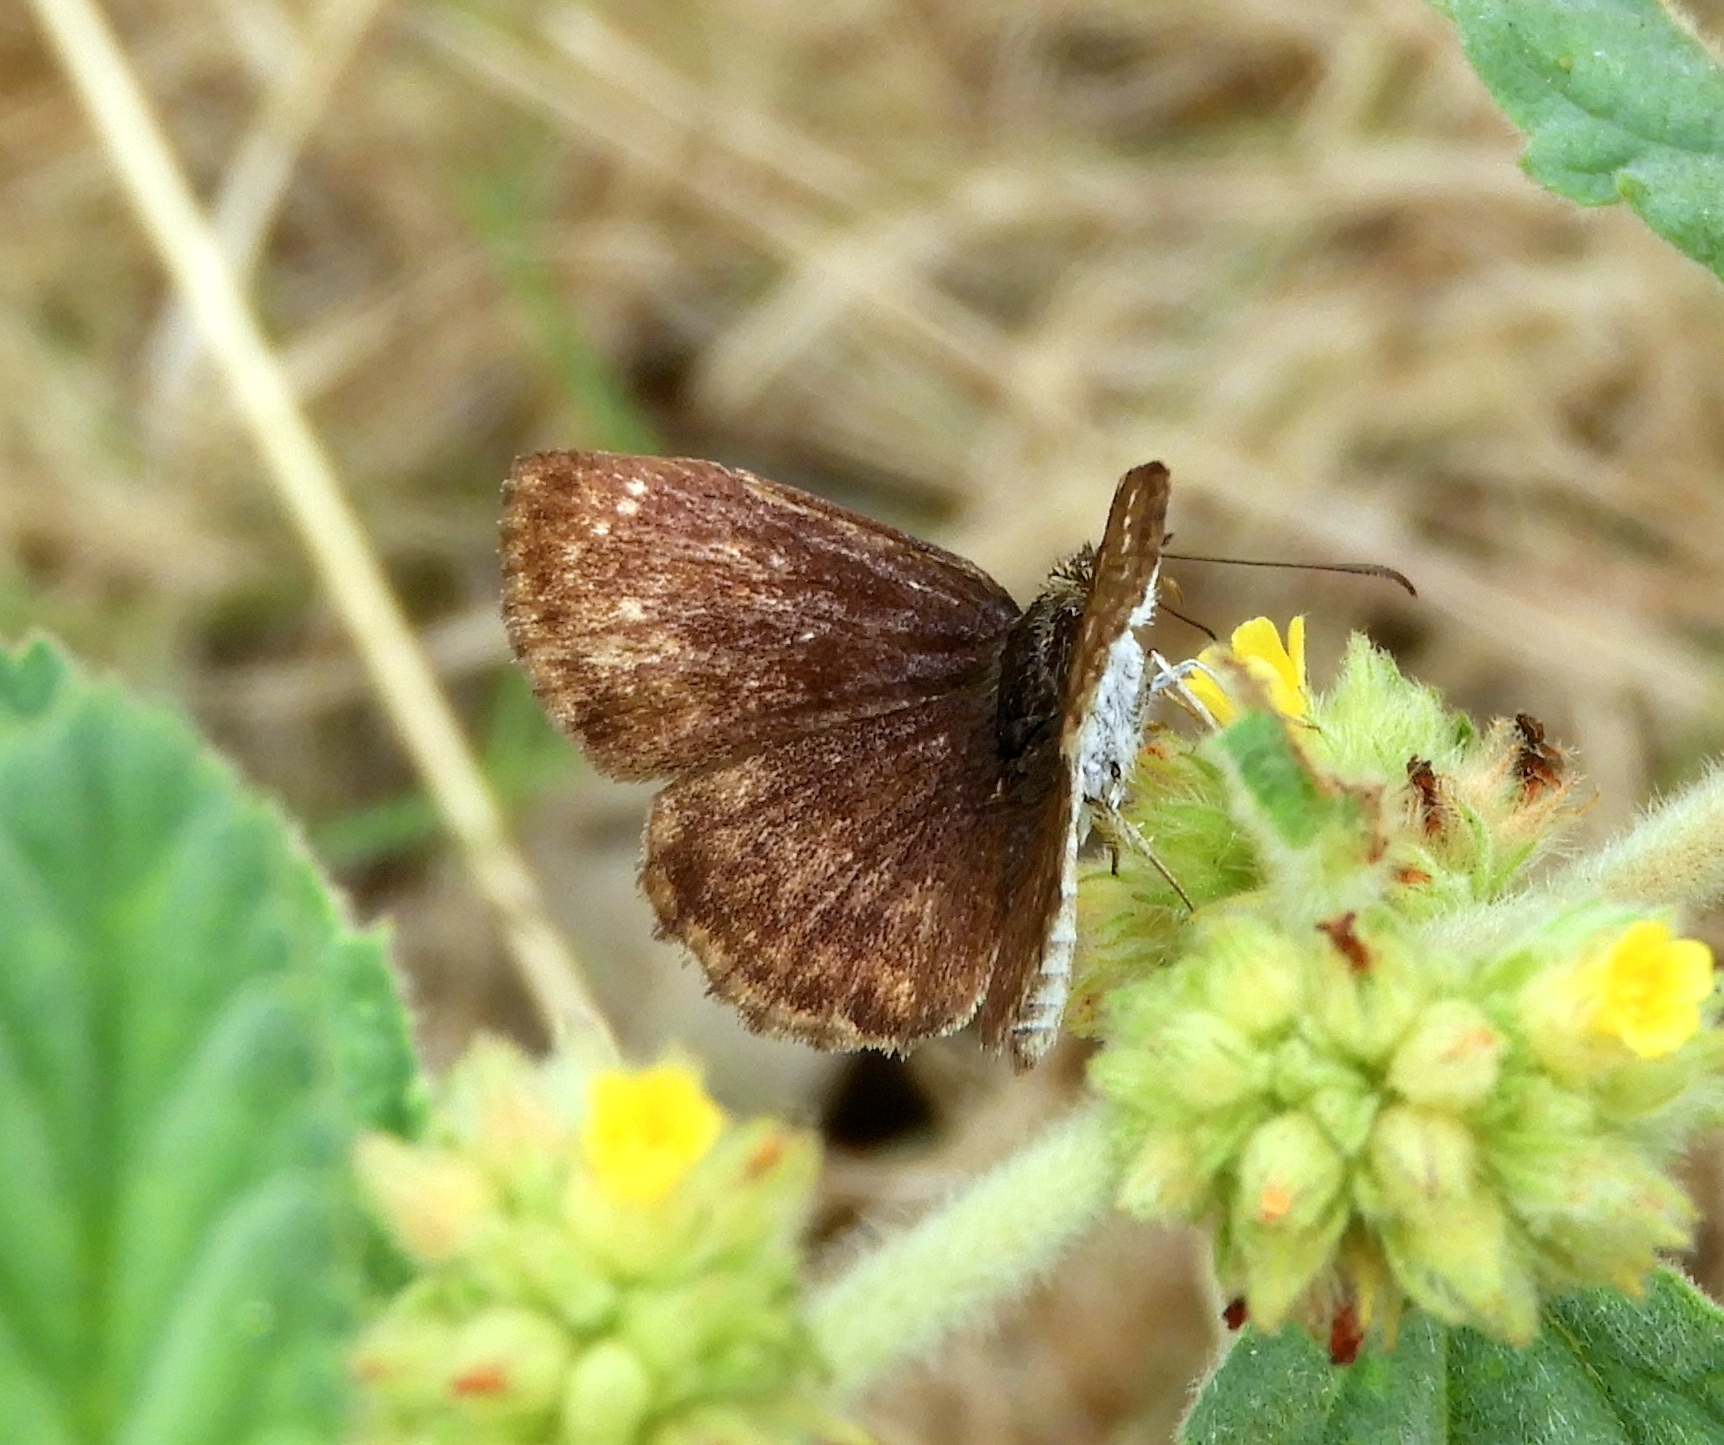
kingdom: Animalia
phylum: Arthropoda
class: Insecta
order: Lepidoptera
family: Hesperiidae
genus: Zopyrion
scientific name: Zopyrion sandace
